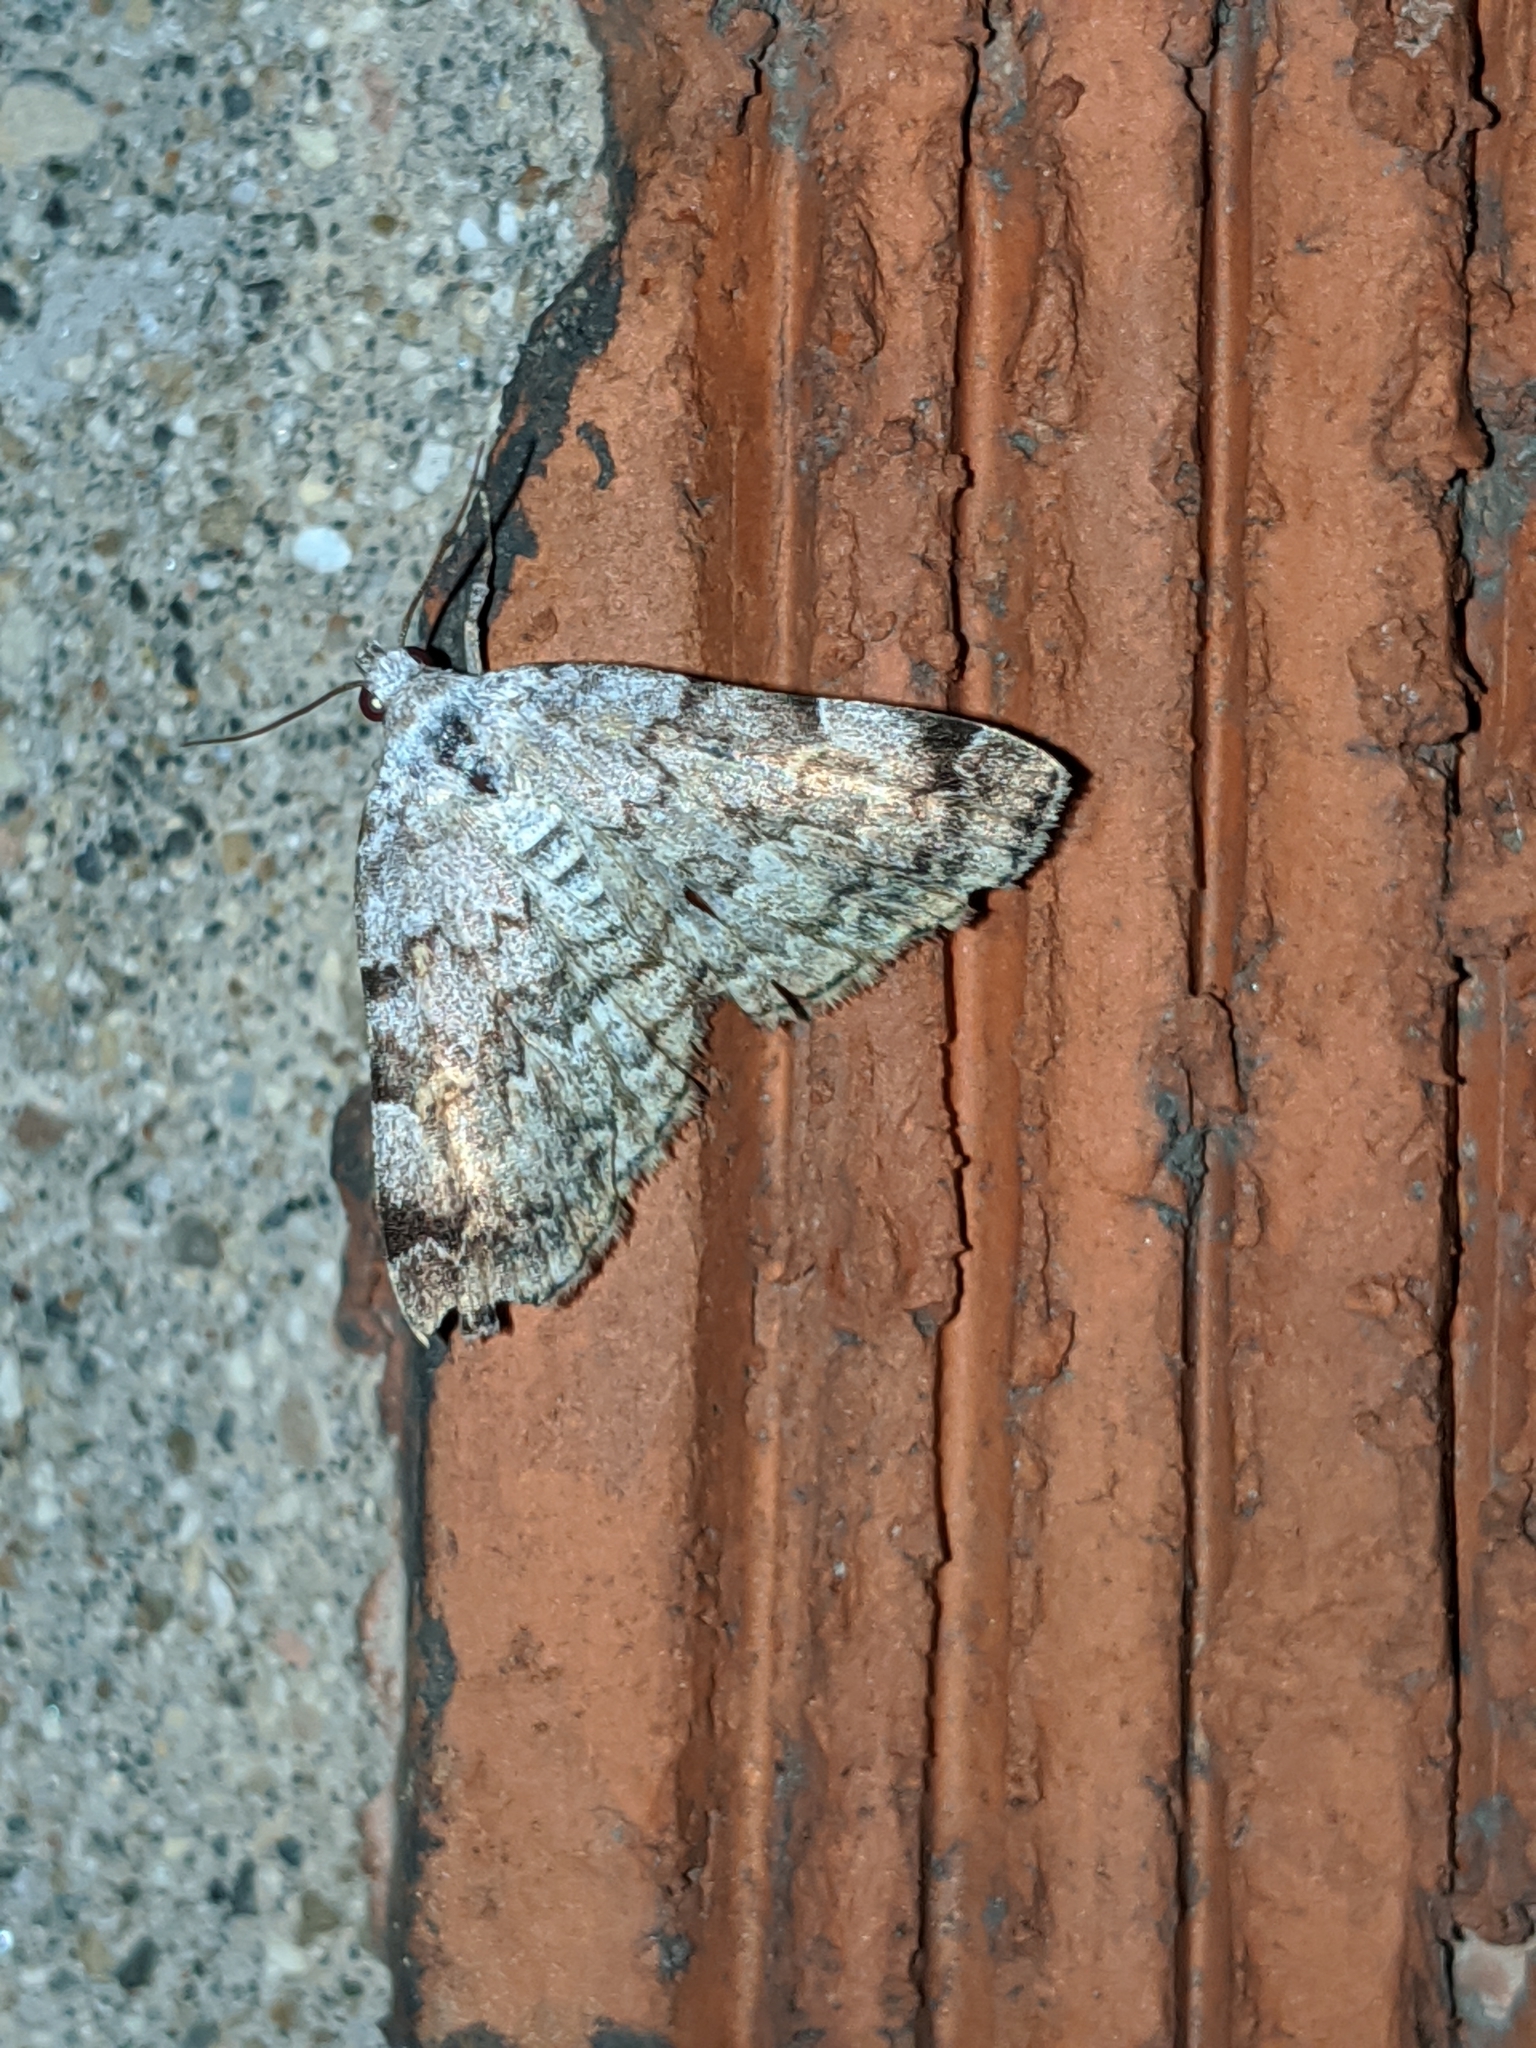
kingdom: Animalia
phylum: Arthropoda
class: Insecta
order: Lepidoptera
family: Erebidae
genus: Idia
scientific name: Idia americalis
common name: American idia moth
